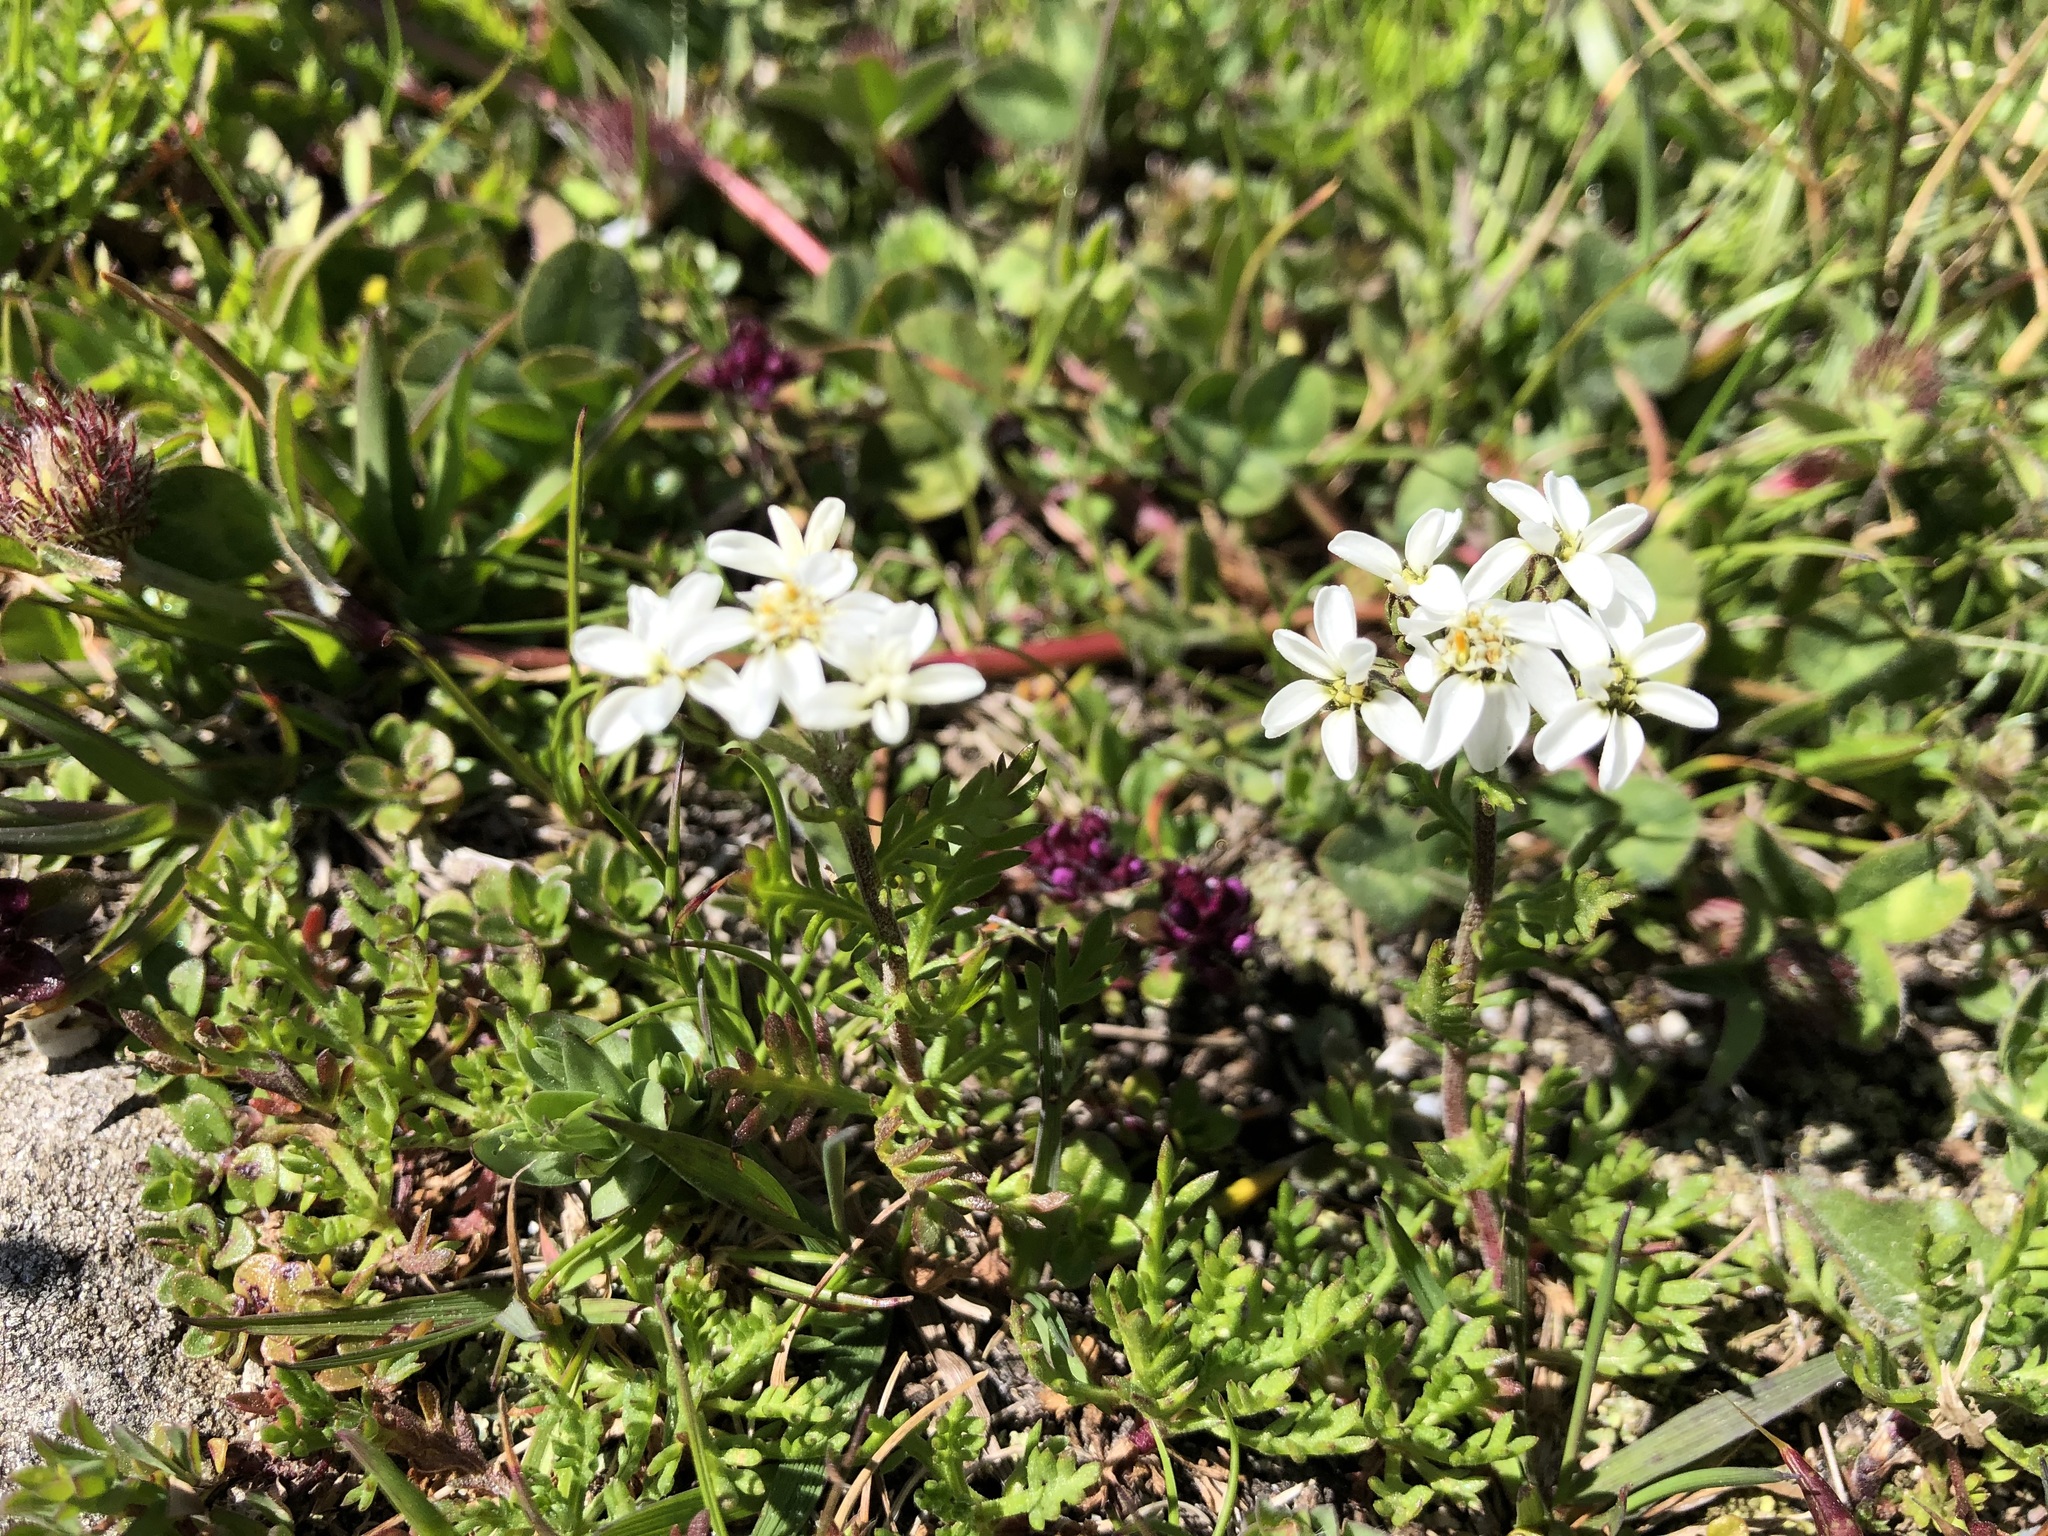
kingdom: Plantae
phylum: Tracheophyta
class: Magnoliopsida
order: Asterales
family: Asteraceae
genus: Achillea
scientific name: Achillea erba-rotta
